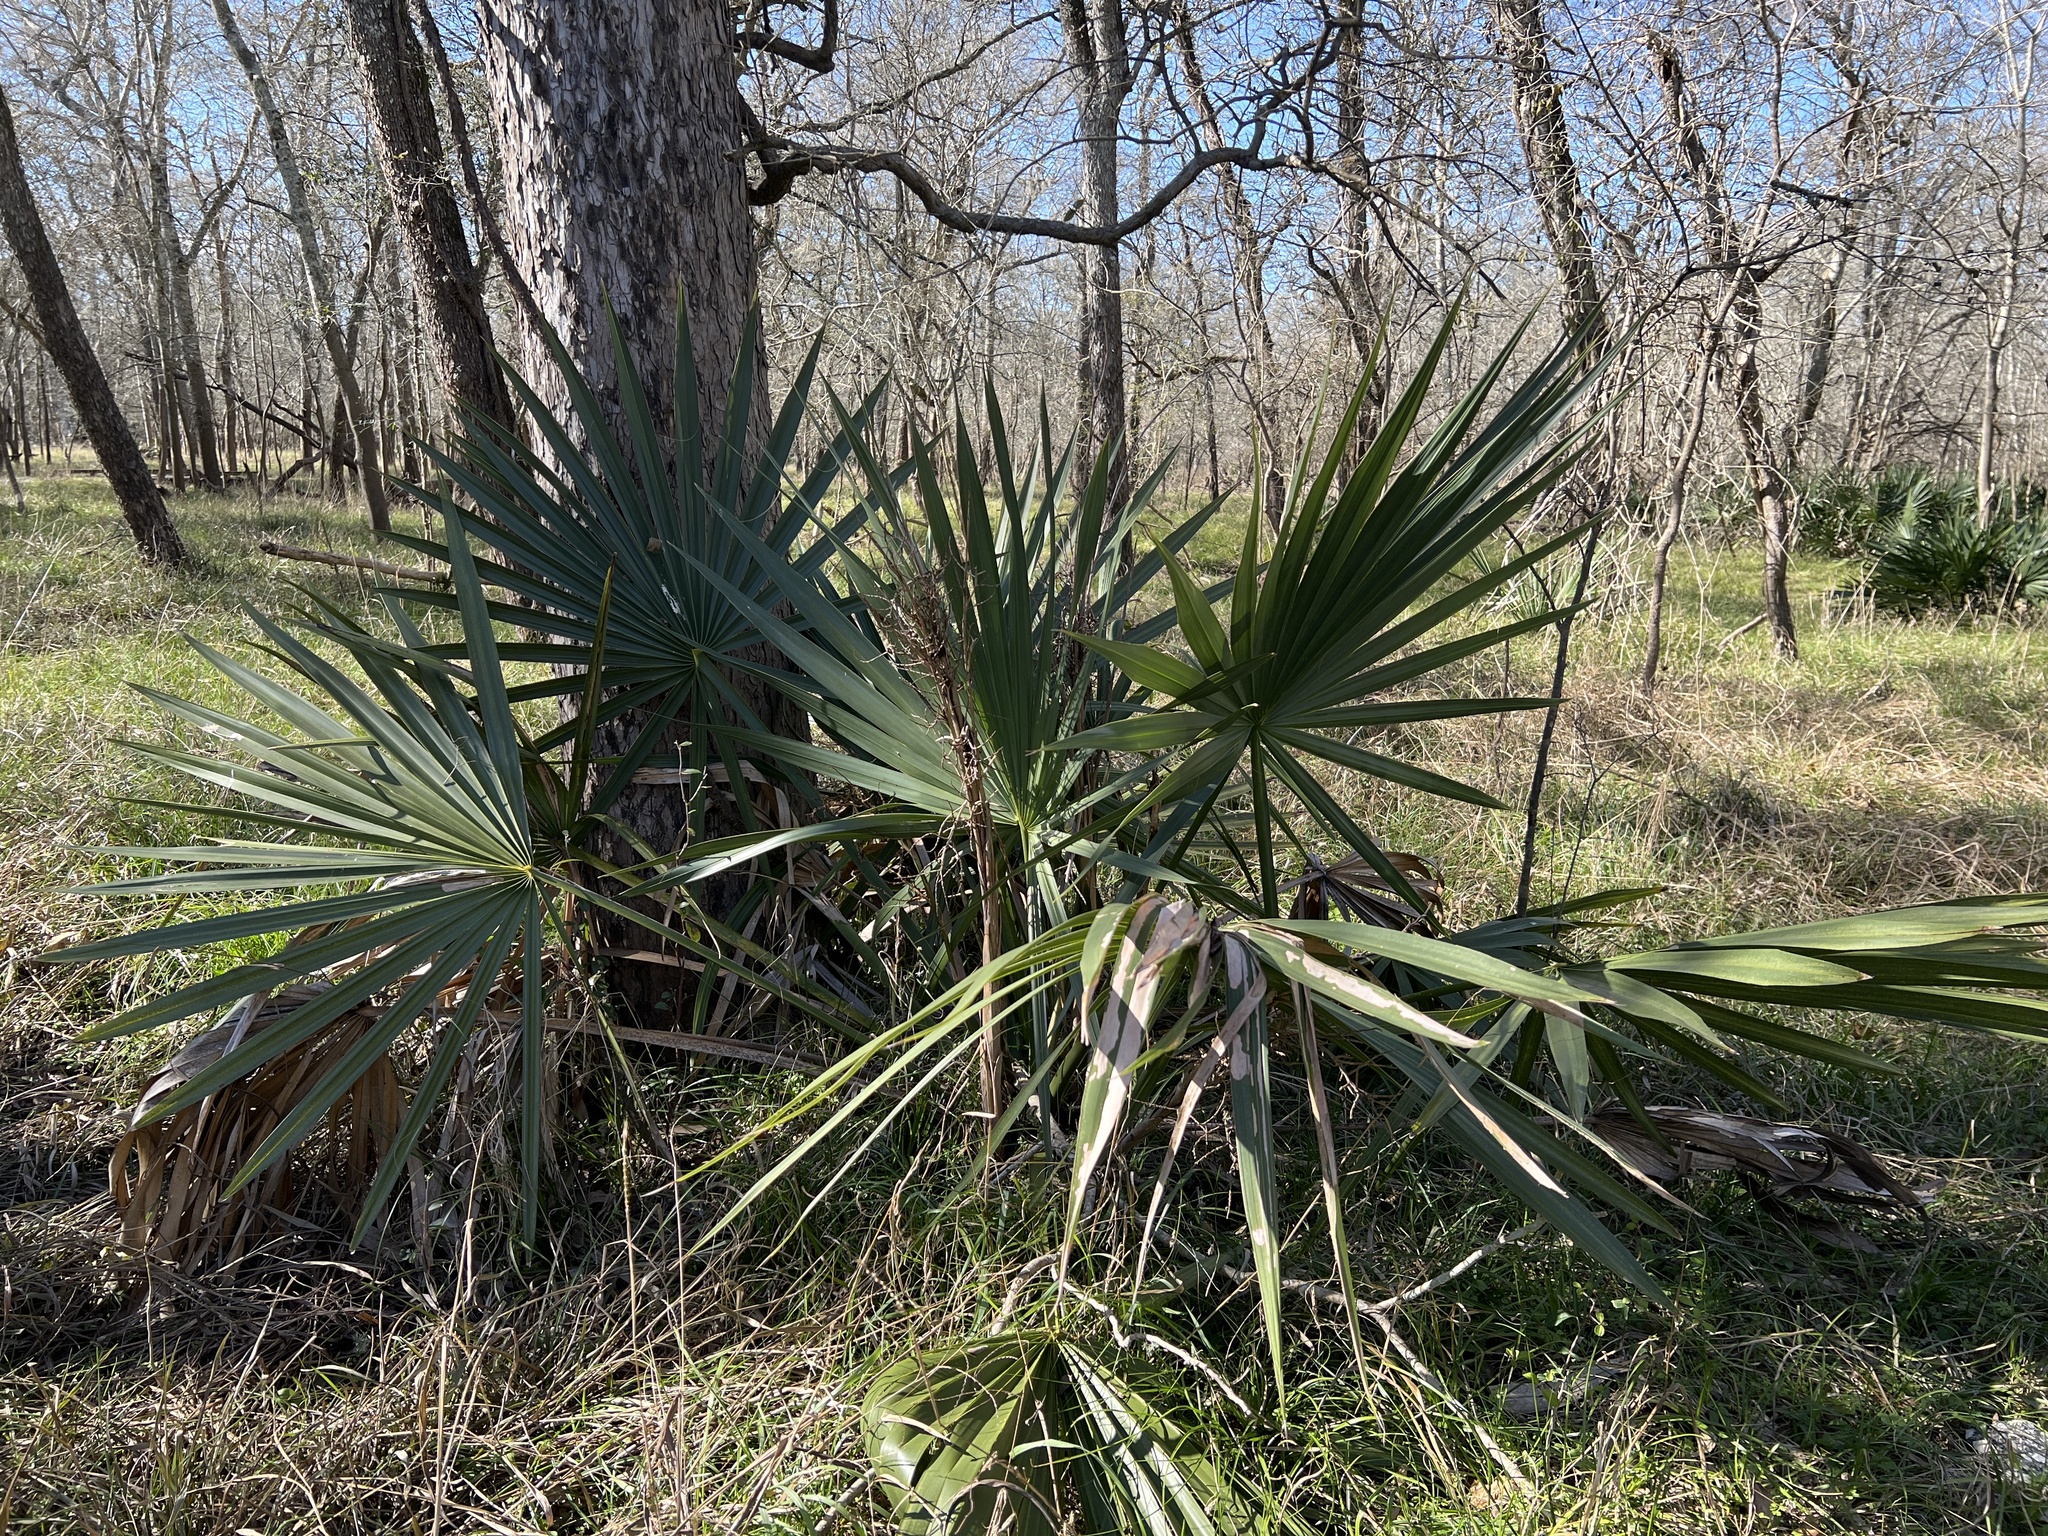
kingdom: Plantae
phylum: Tracheophyta
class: Liliopsida
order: Arecales
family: Arecaceae
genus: Sabal
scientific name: Sabal minor
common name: Dwarf palmetto
